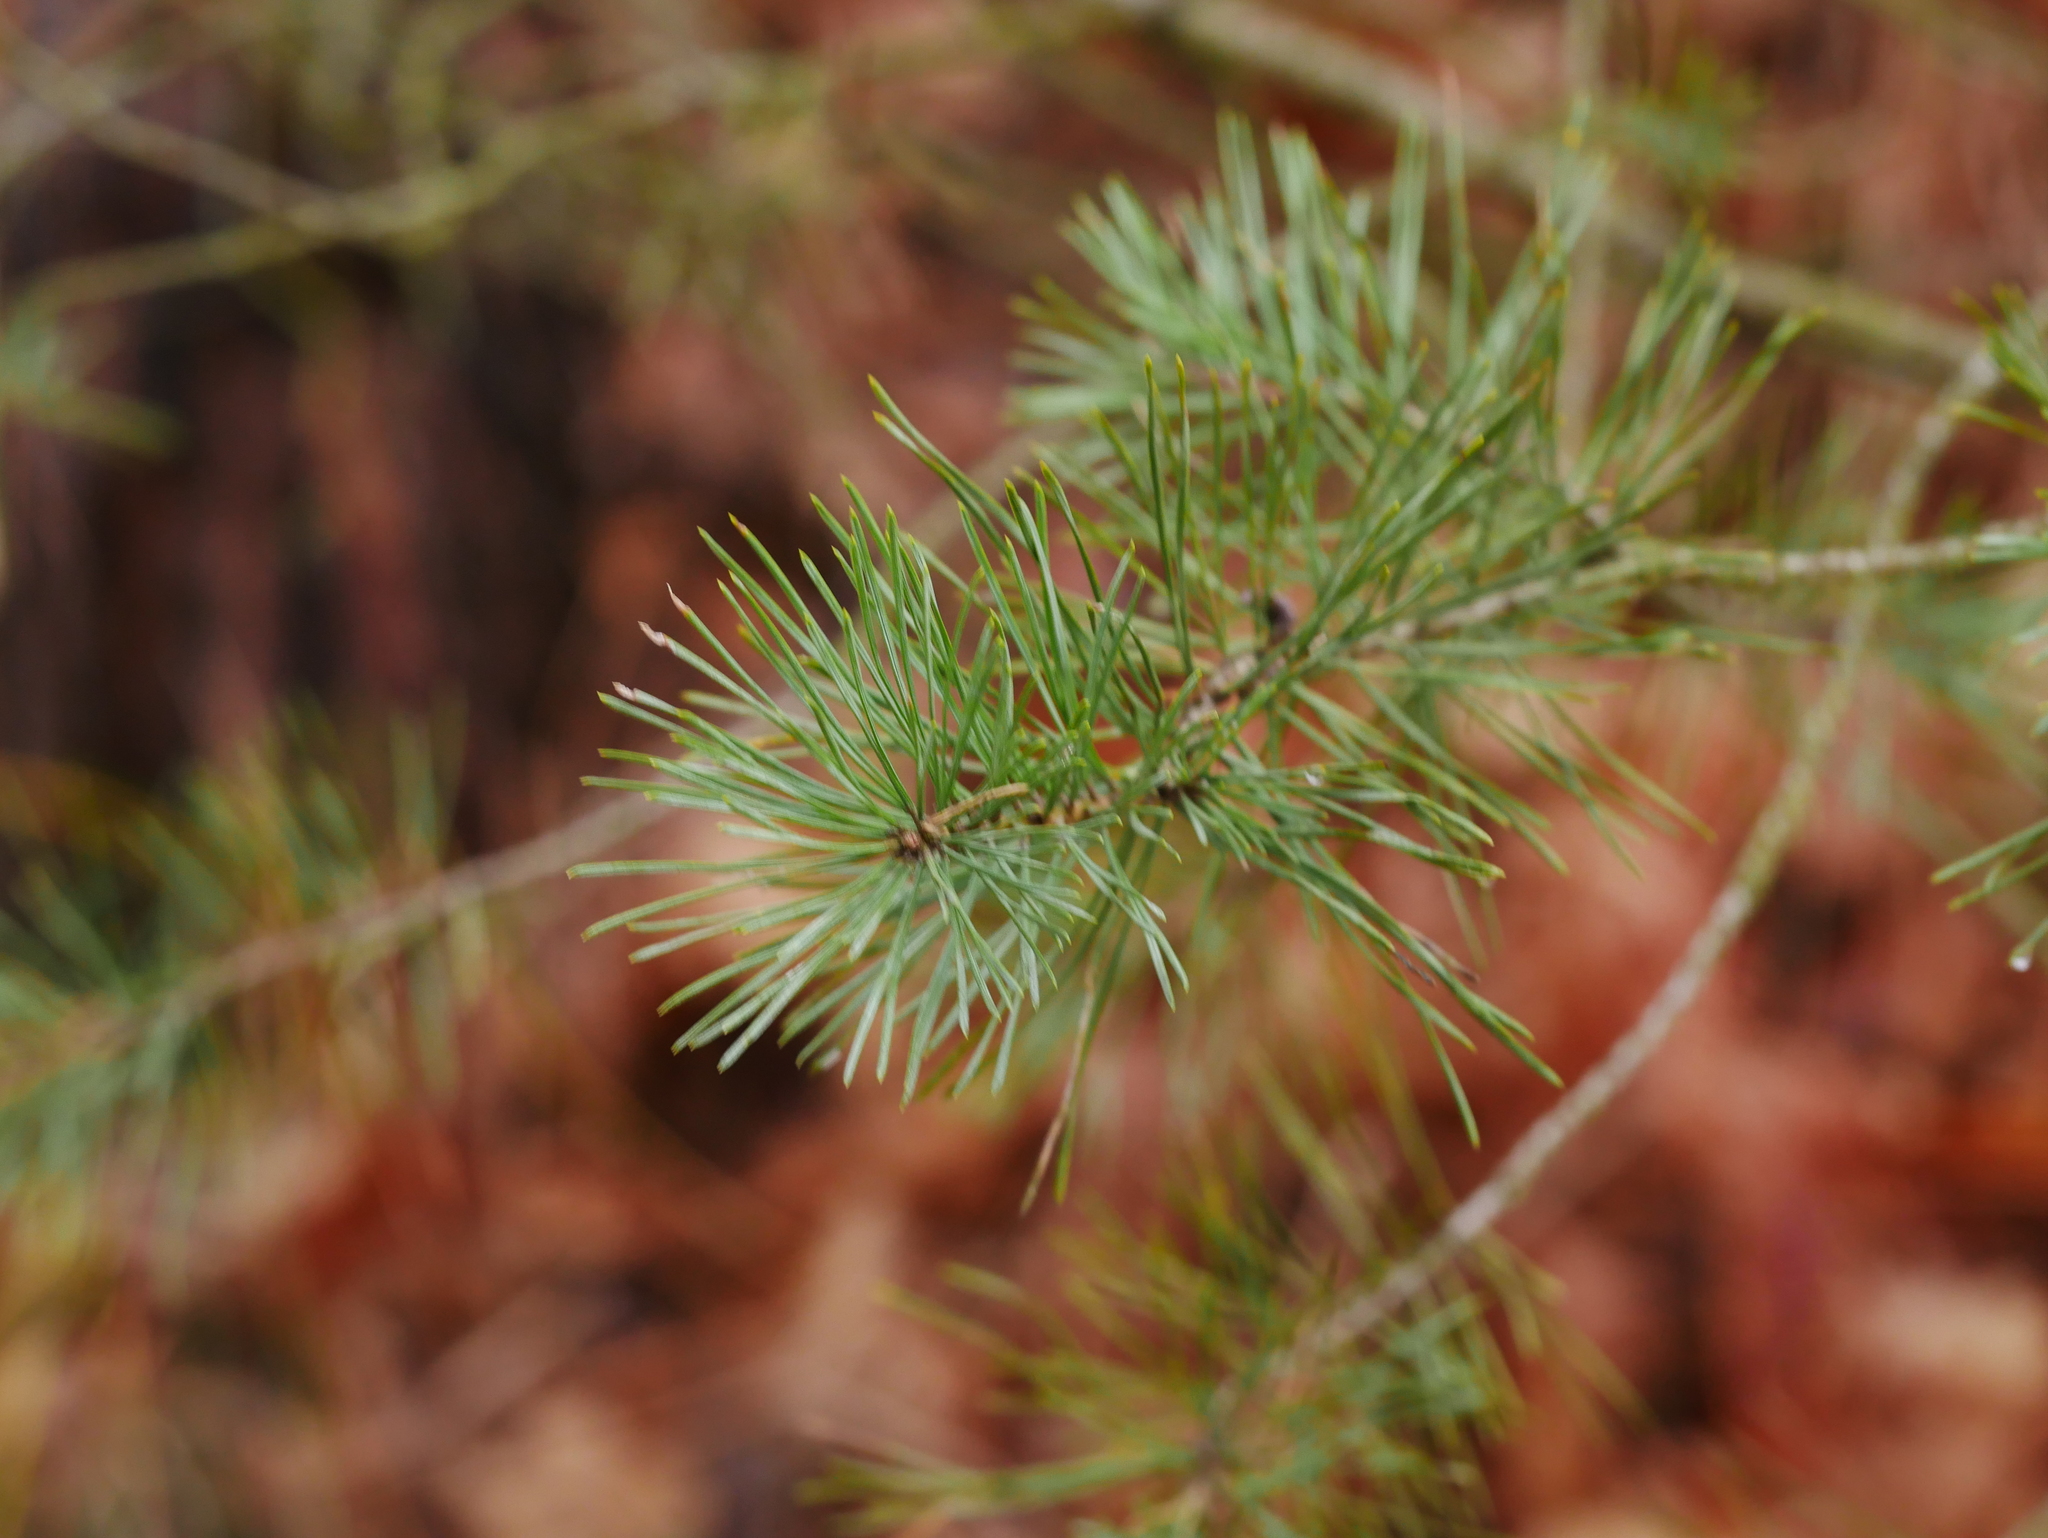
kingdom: Plantae
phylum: Tracheophyta
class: Pinopsida
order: Pinales
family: Pinaceae
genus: Pinus
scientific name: Pinus sylvestris
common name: Scots pine
